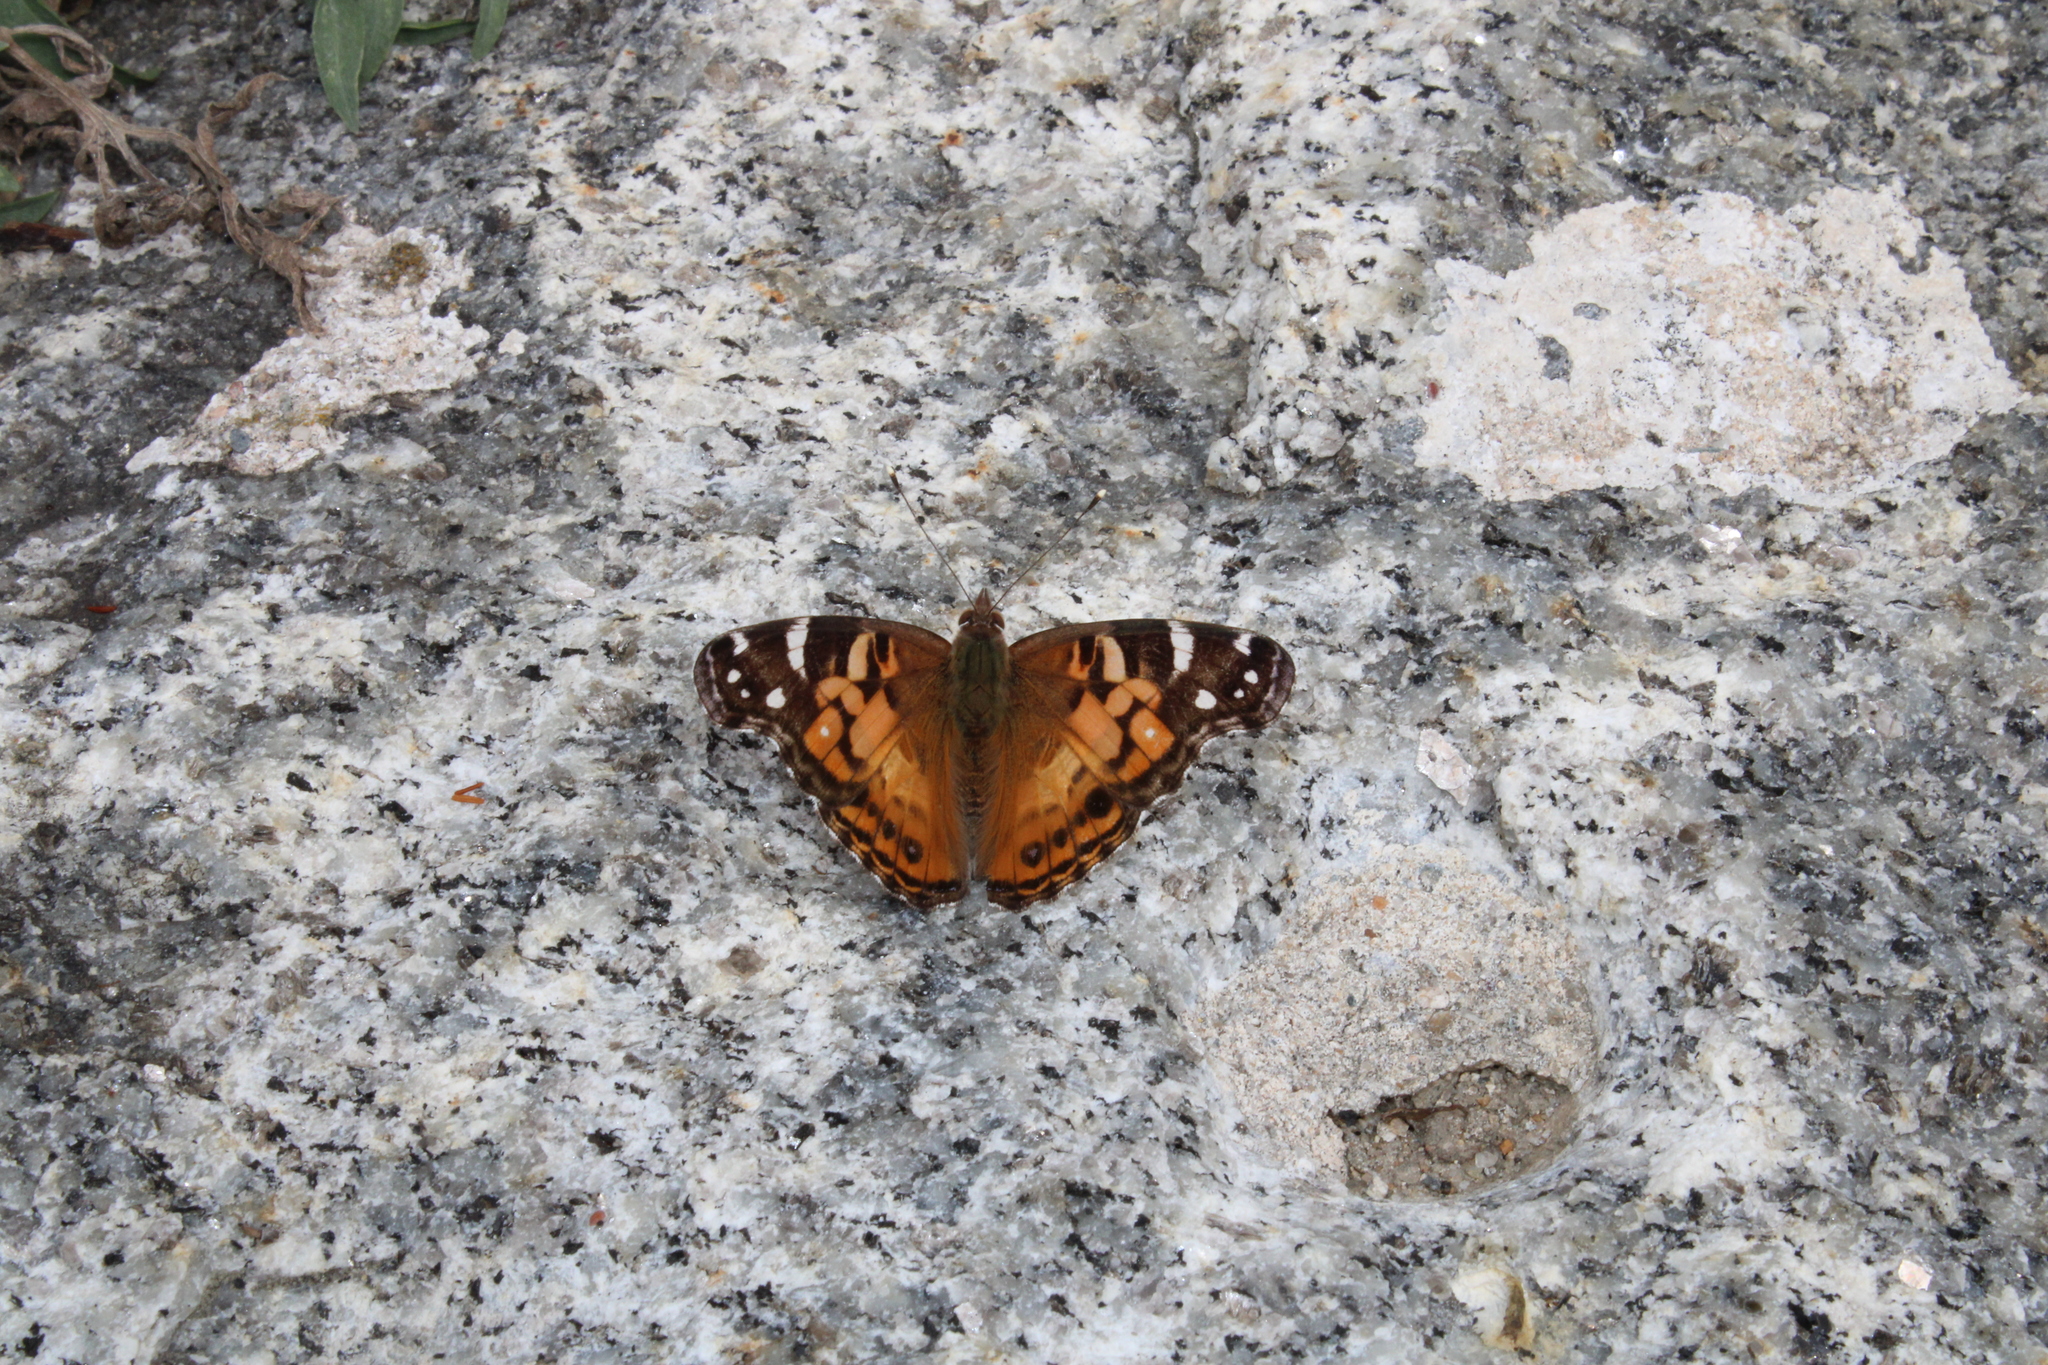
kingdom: Animalia
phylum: Arthropoda
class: Insecta
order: Lepidoptera
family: Nymphalidae
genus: Vanessa
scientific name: Vanessa virginiensis
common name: American lady
